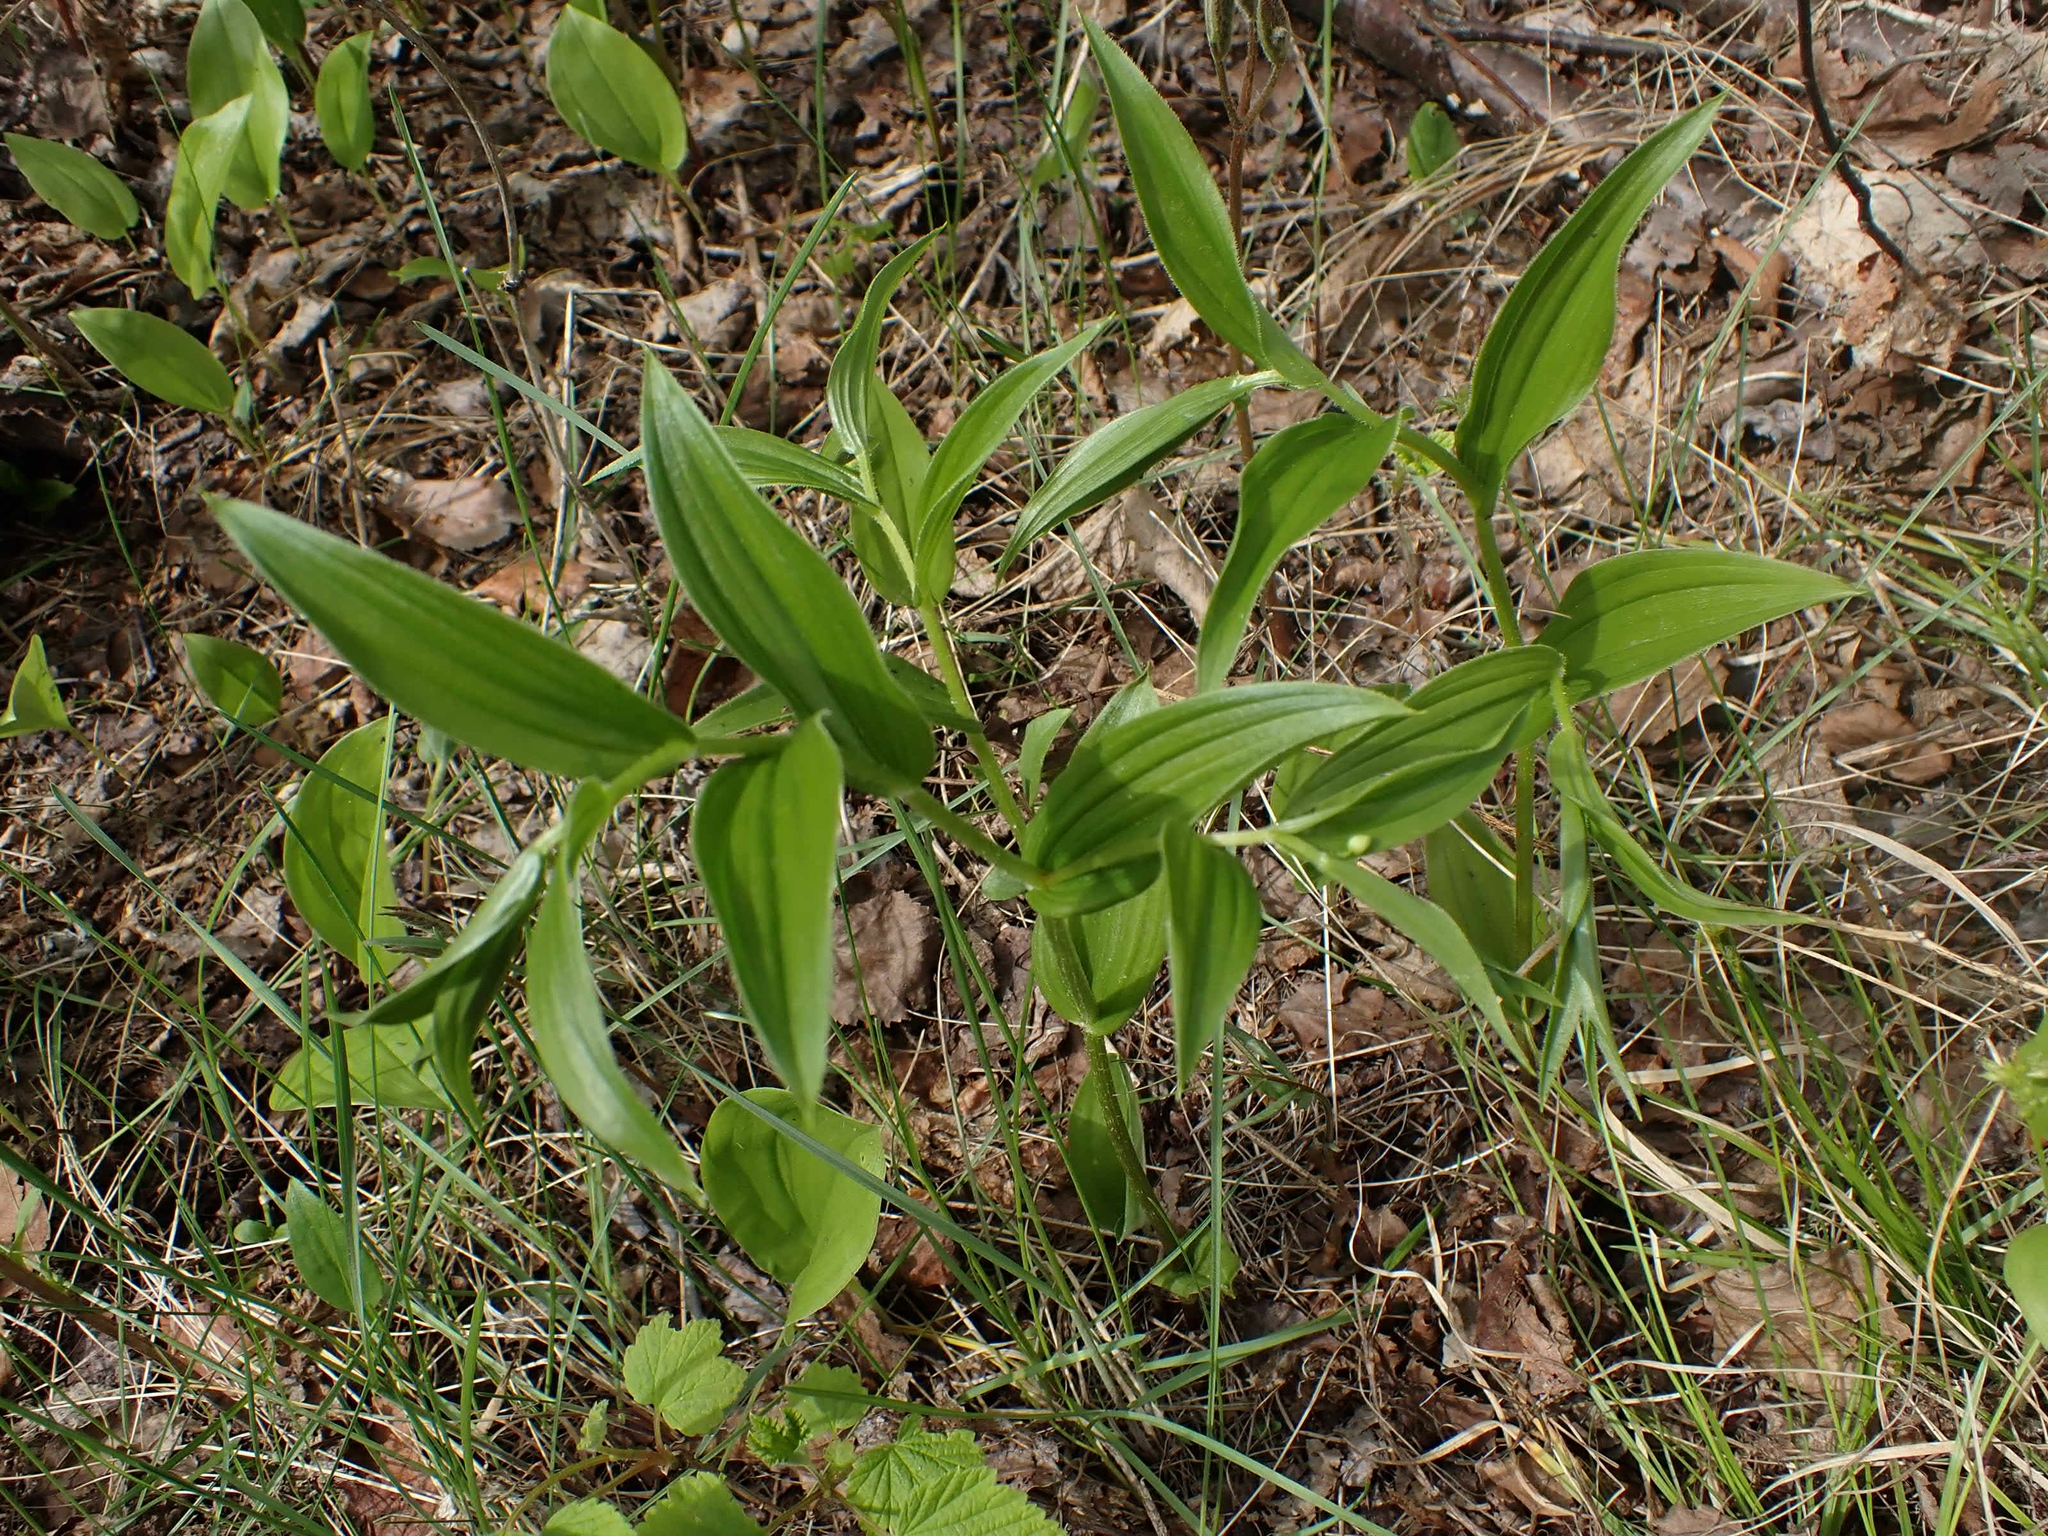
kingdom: Plantae
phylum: Tracheophyta
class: Liliopsida
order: Liliales
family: Liliaceae
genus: Streptopus
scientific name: Streptopus lanceolatus
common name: Rose mandarin
